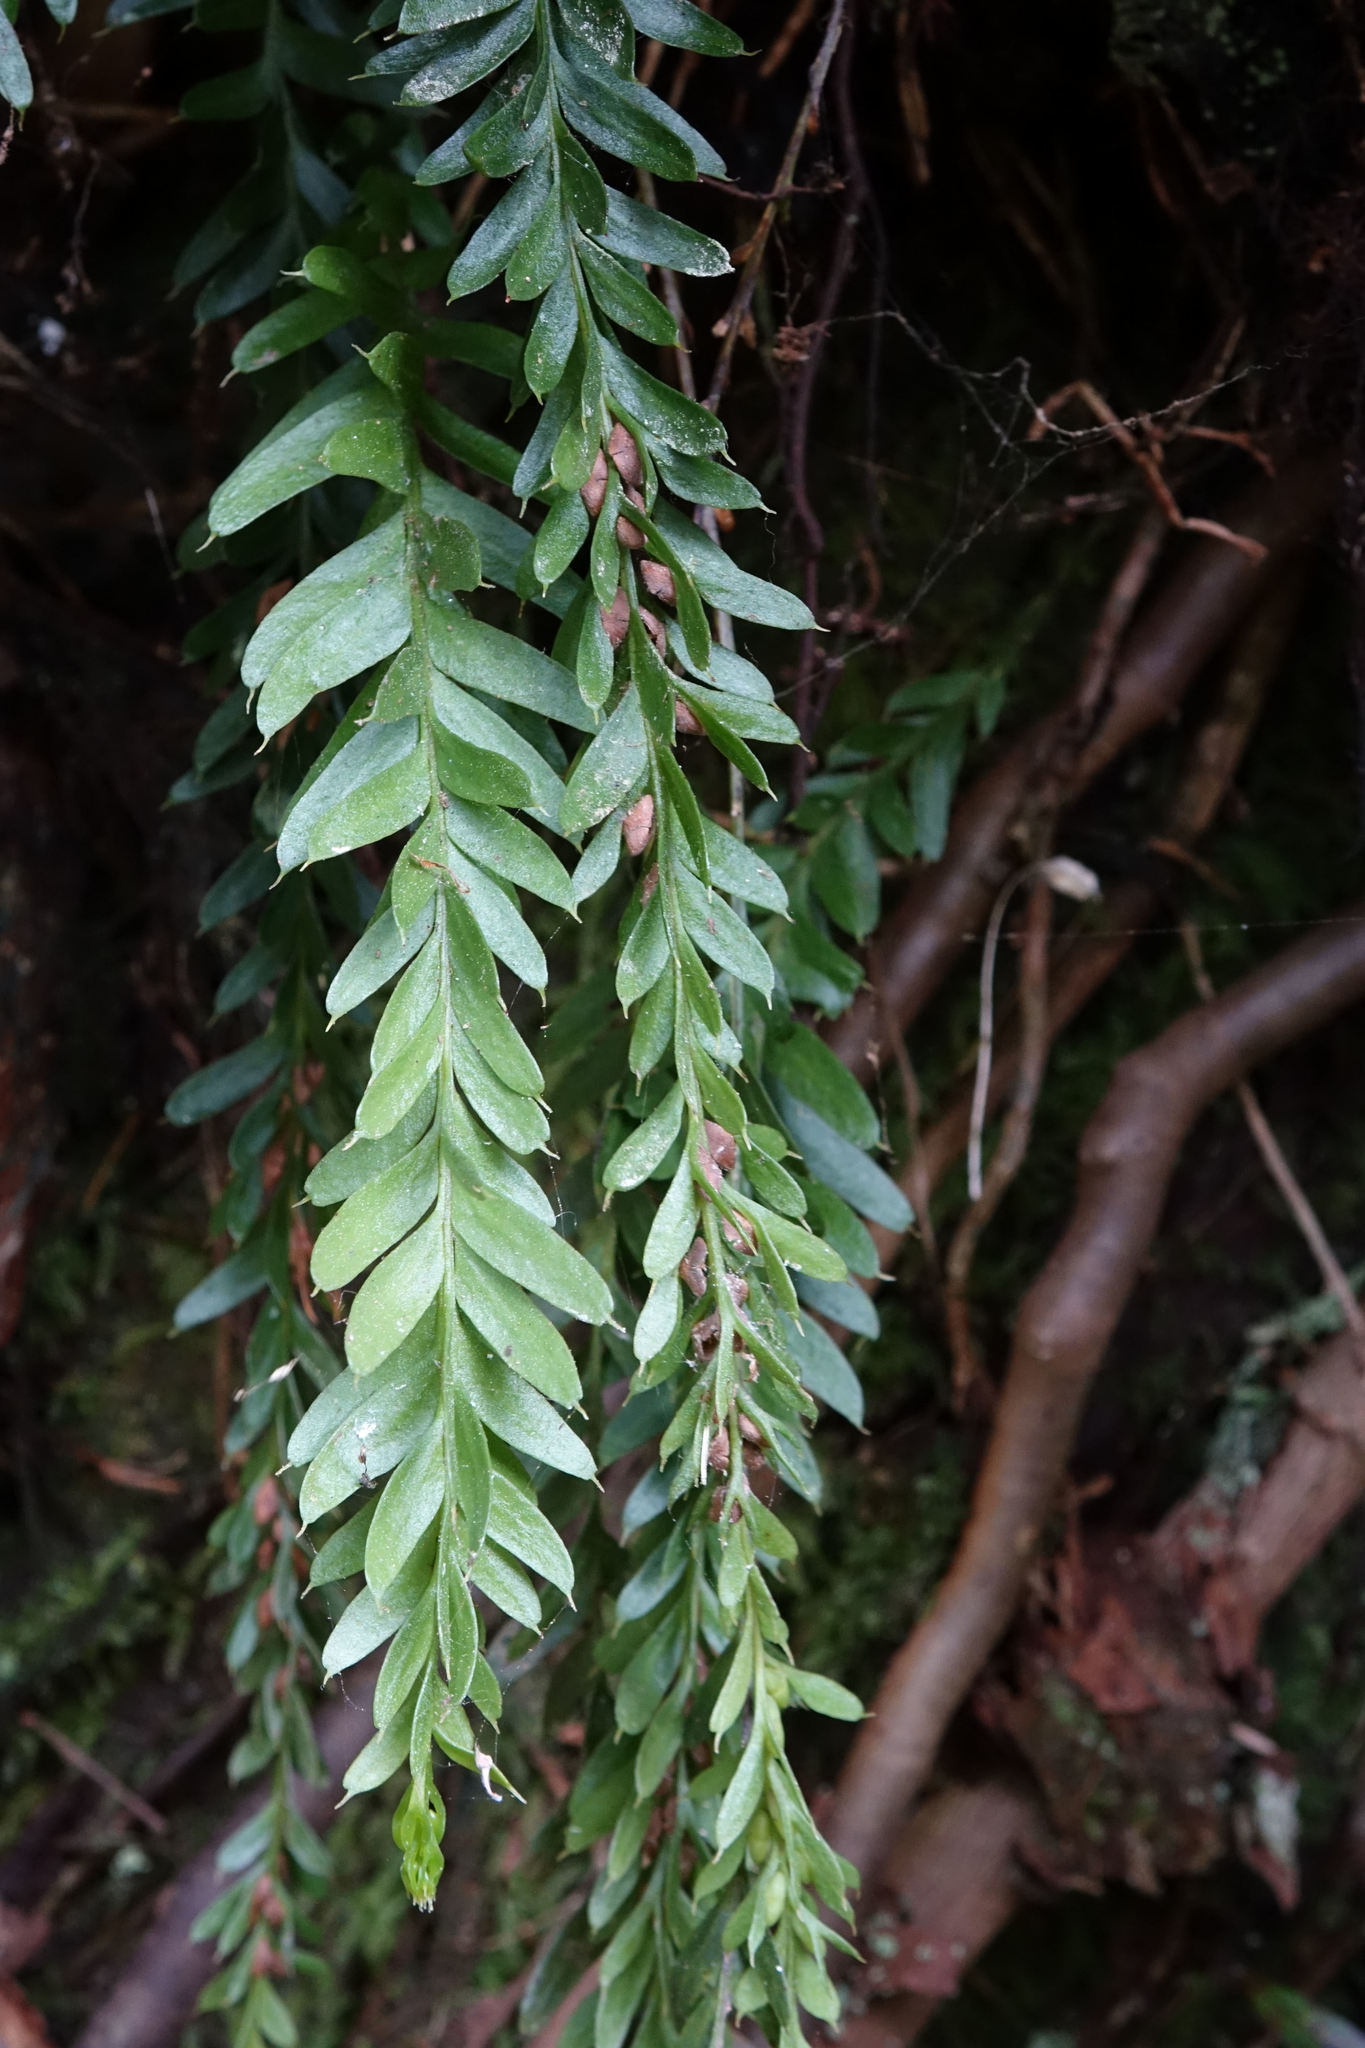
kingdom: Plantae
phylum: Tracheophyta
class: Polypodiopsida
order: Psilotales
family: Psilotaceae
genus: Tmesipteris
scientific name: Tmesipteris tannensis
